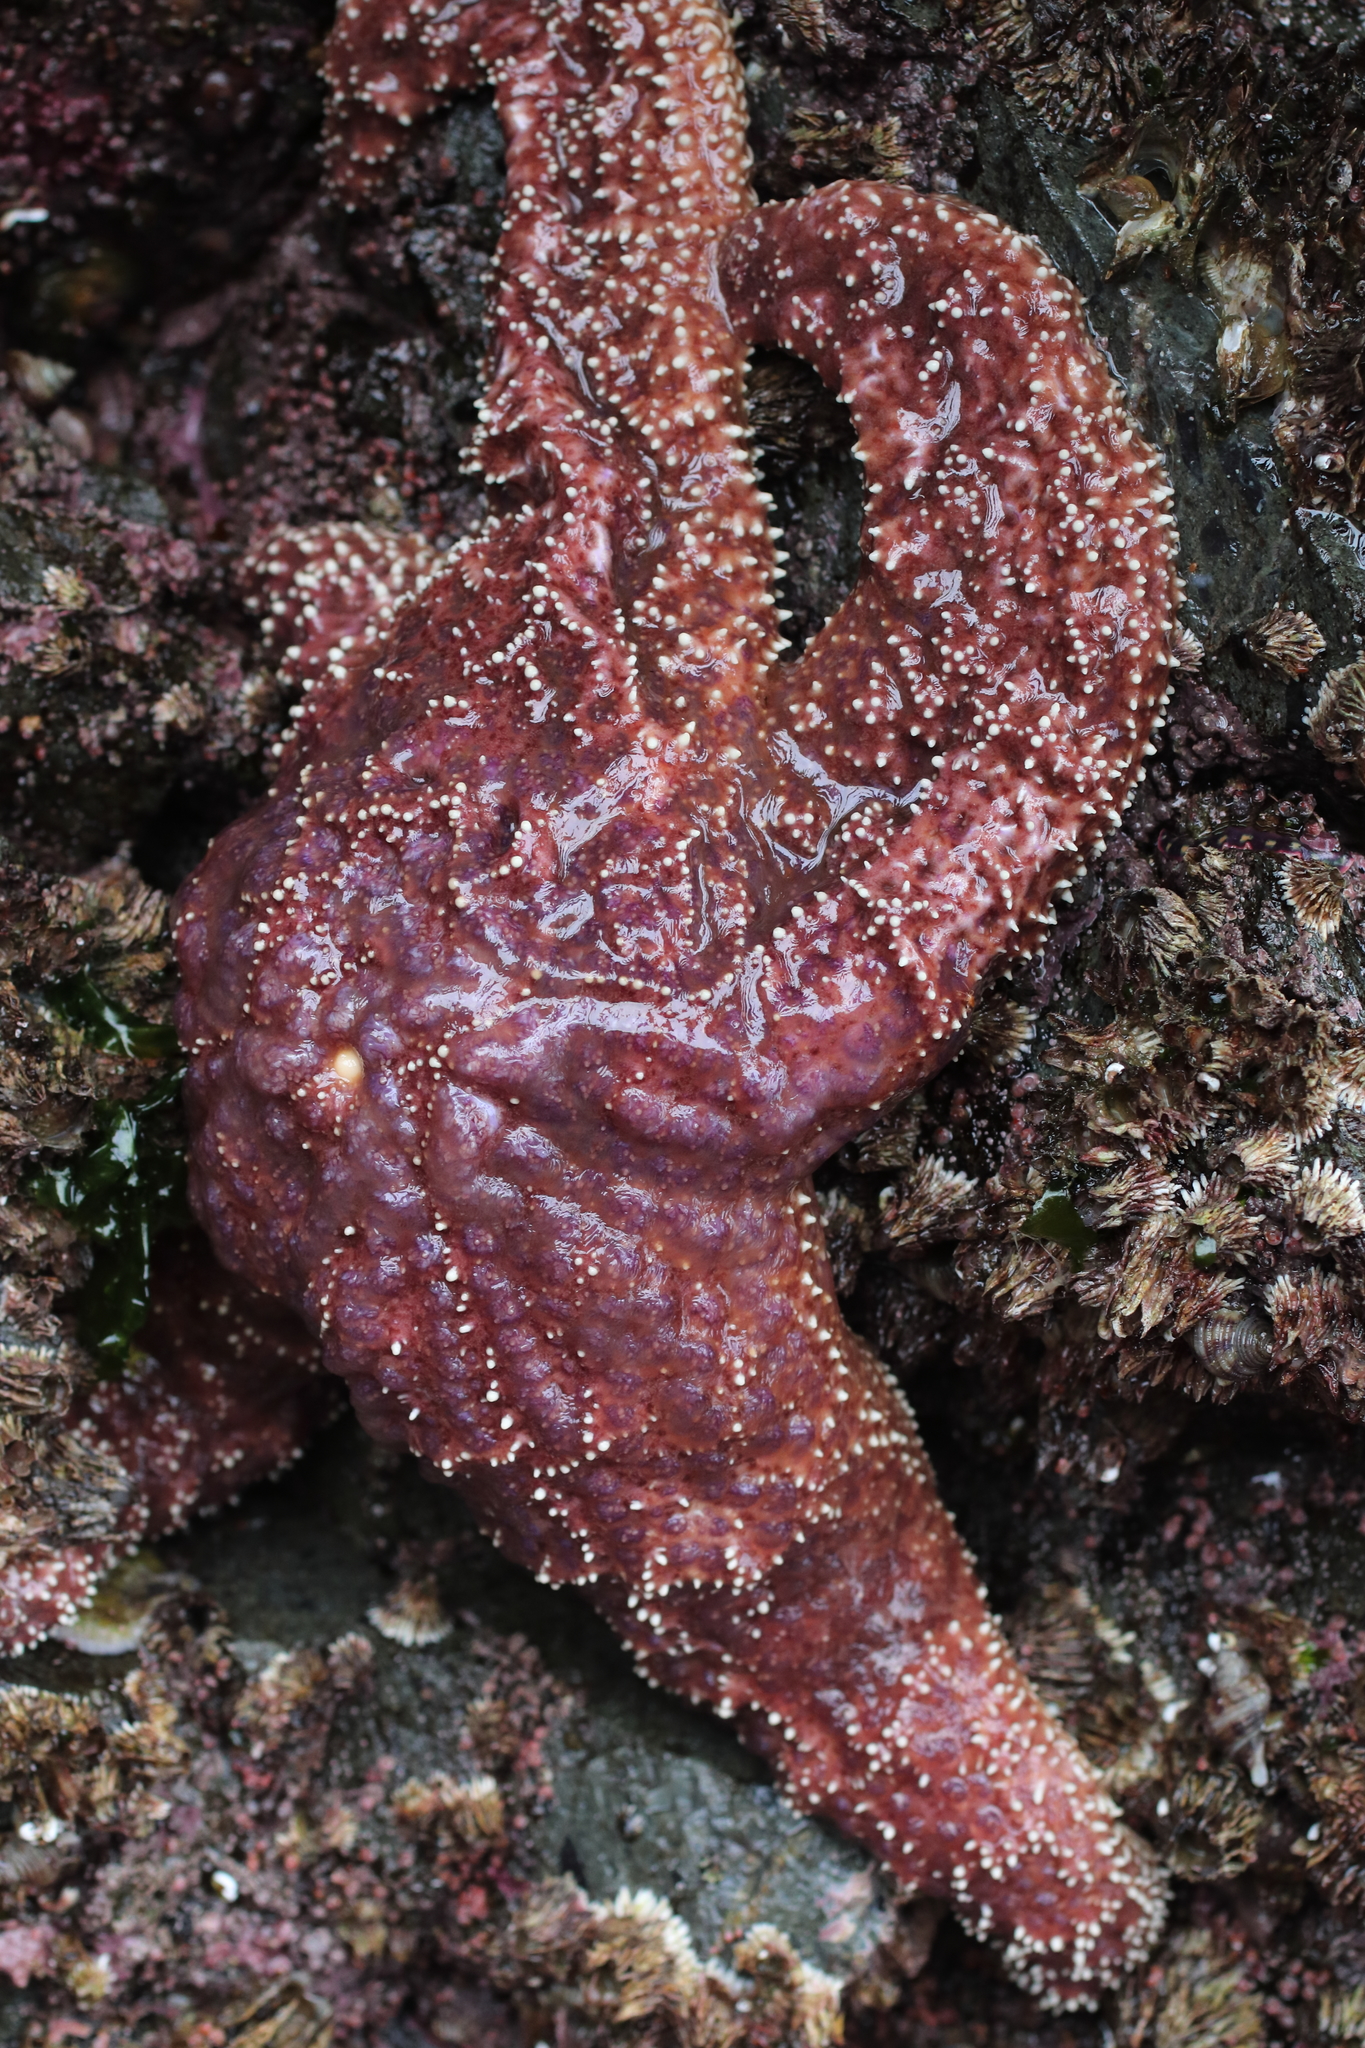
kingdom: Animalia
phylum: Echinodermata
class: Asteroidea
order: Forcipulatida
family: Asteriidae
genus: Pisaster
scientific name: Pisaster ochraceus
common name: Ochre stars
